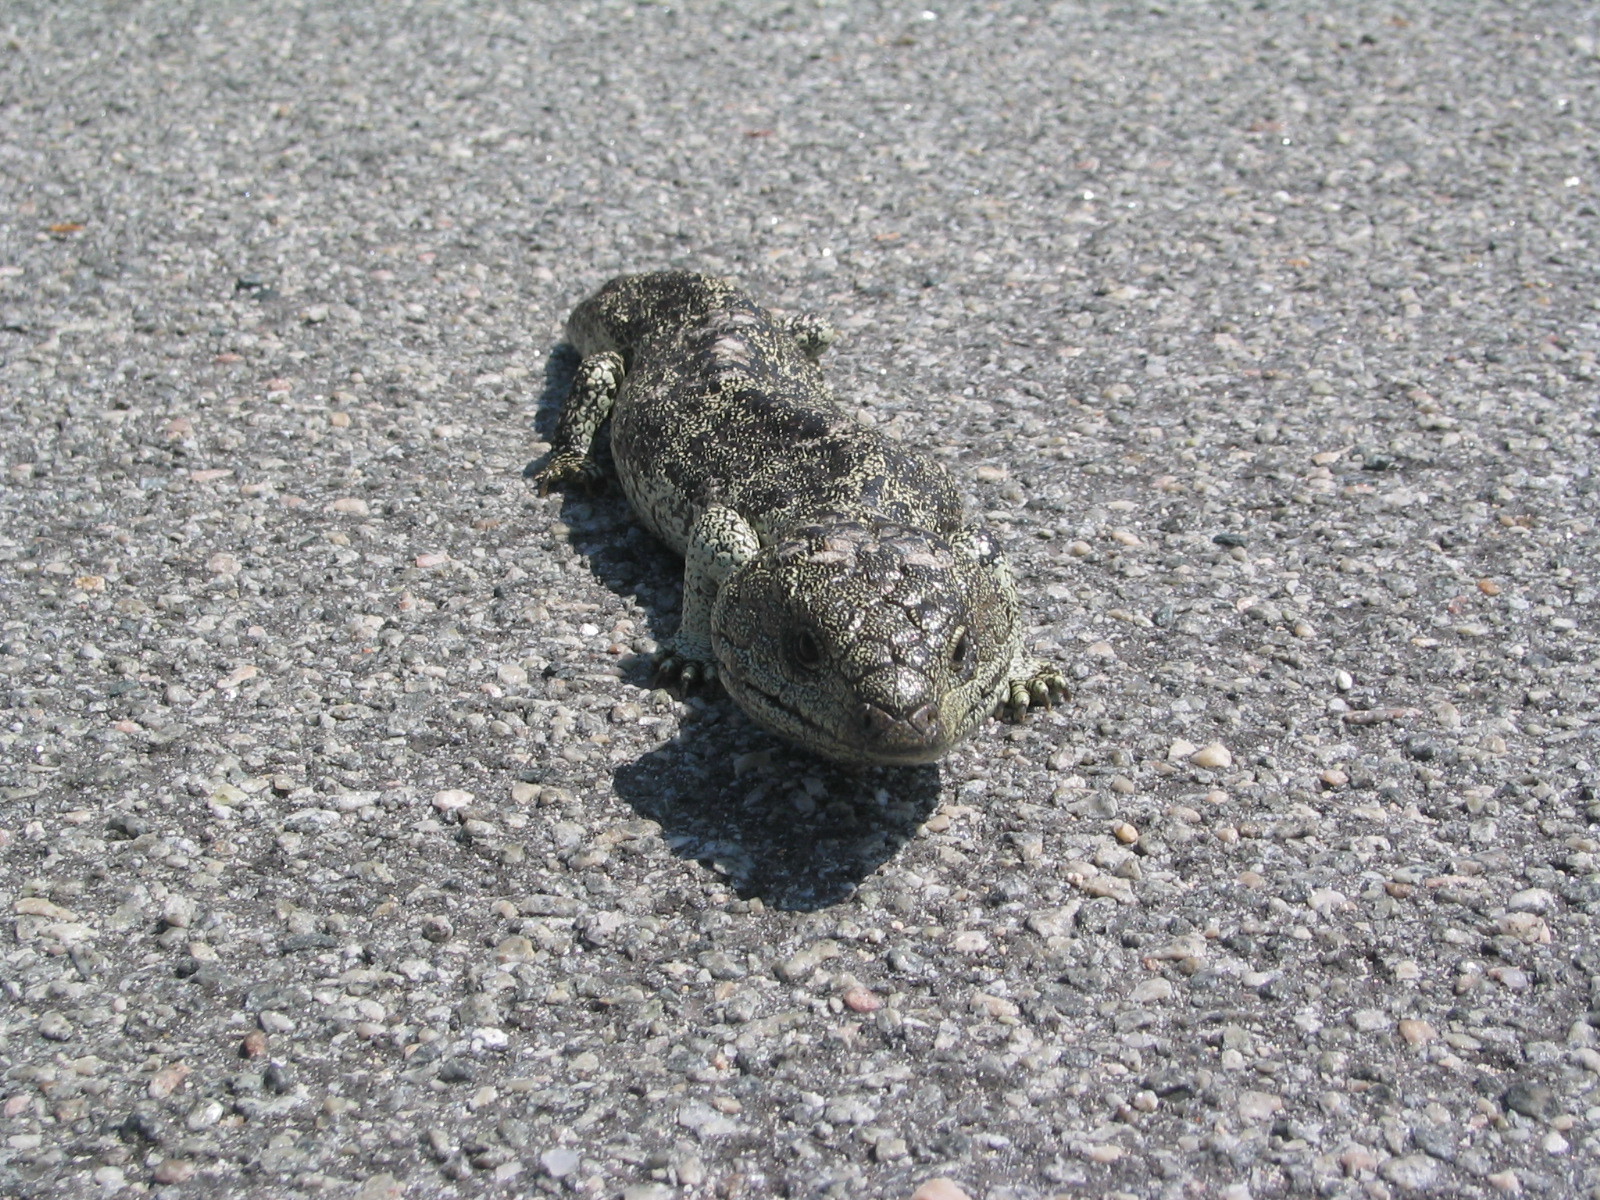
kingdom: Animalia
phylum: Chordata
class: Squamata
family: Scincidae
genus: Tiliqua
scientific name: Tiliqua rugosa
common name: Pinecone lizard
